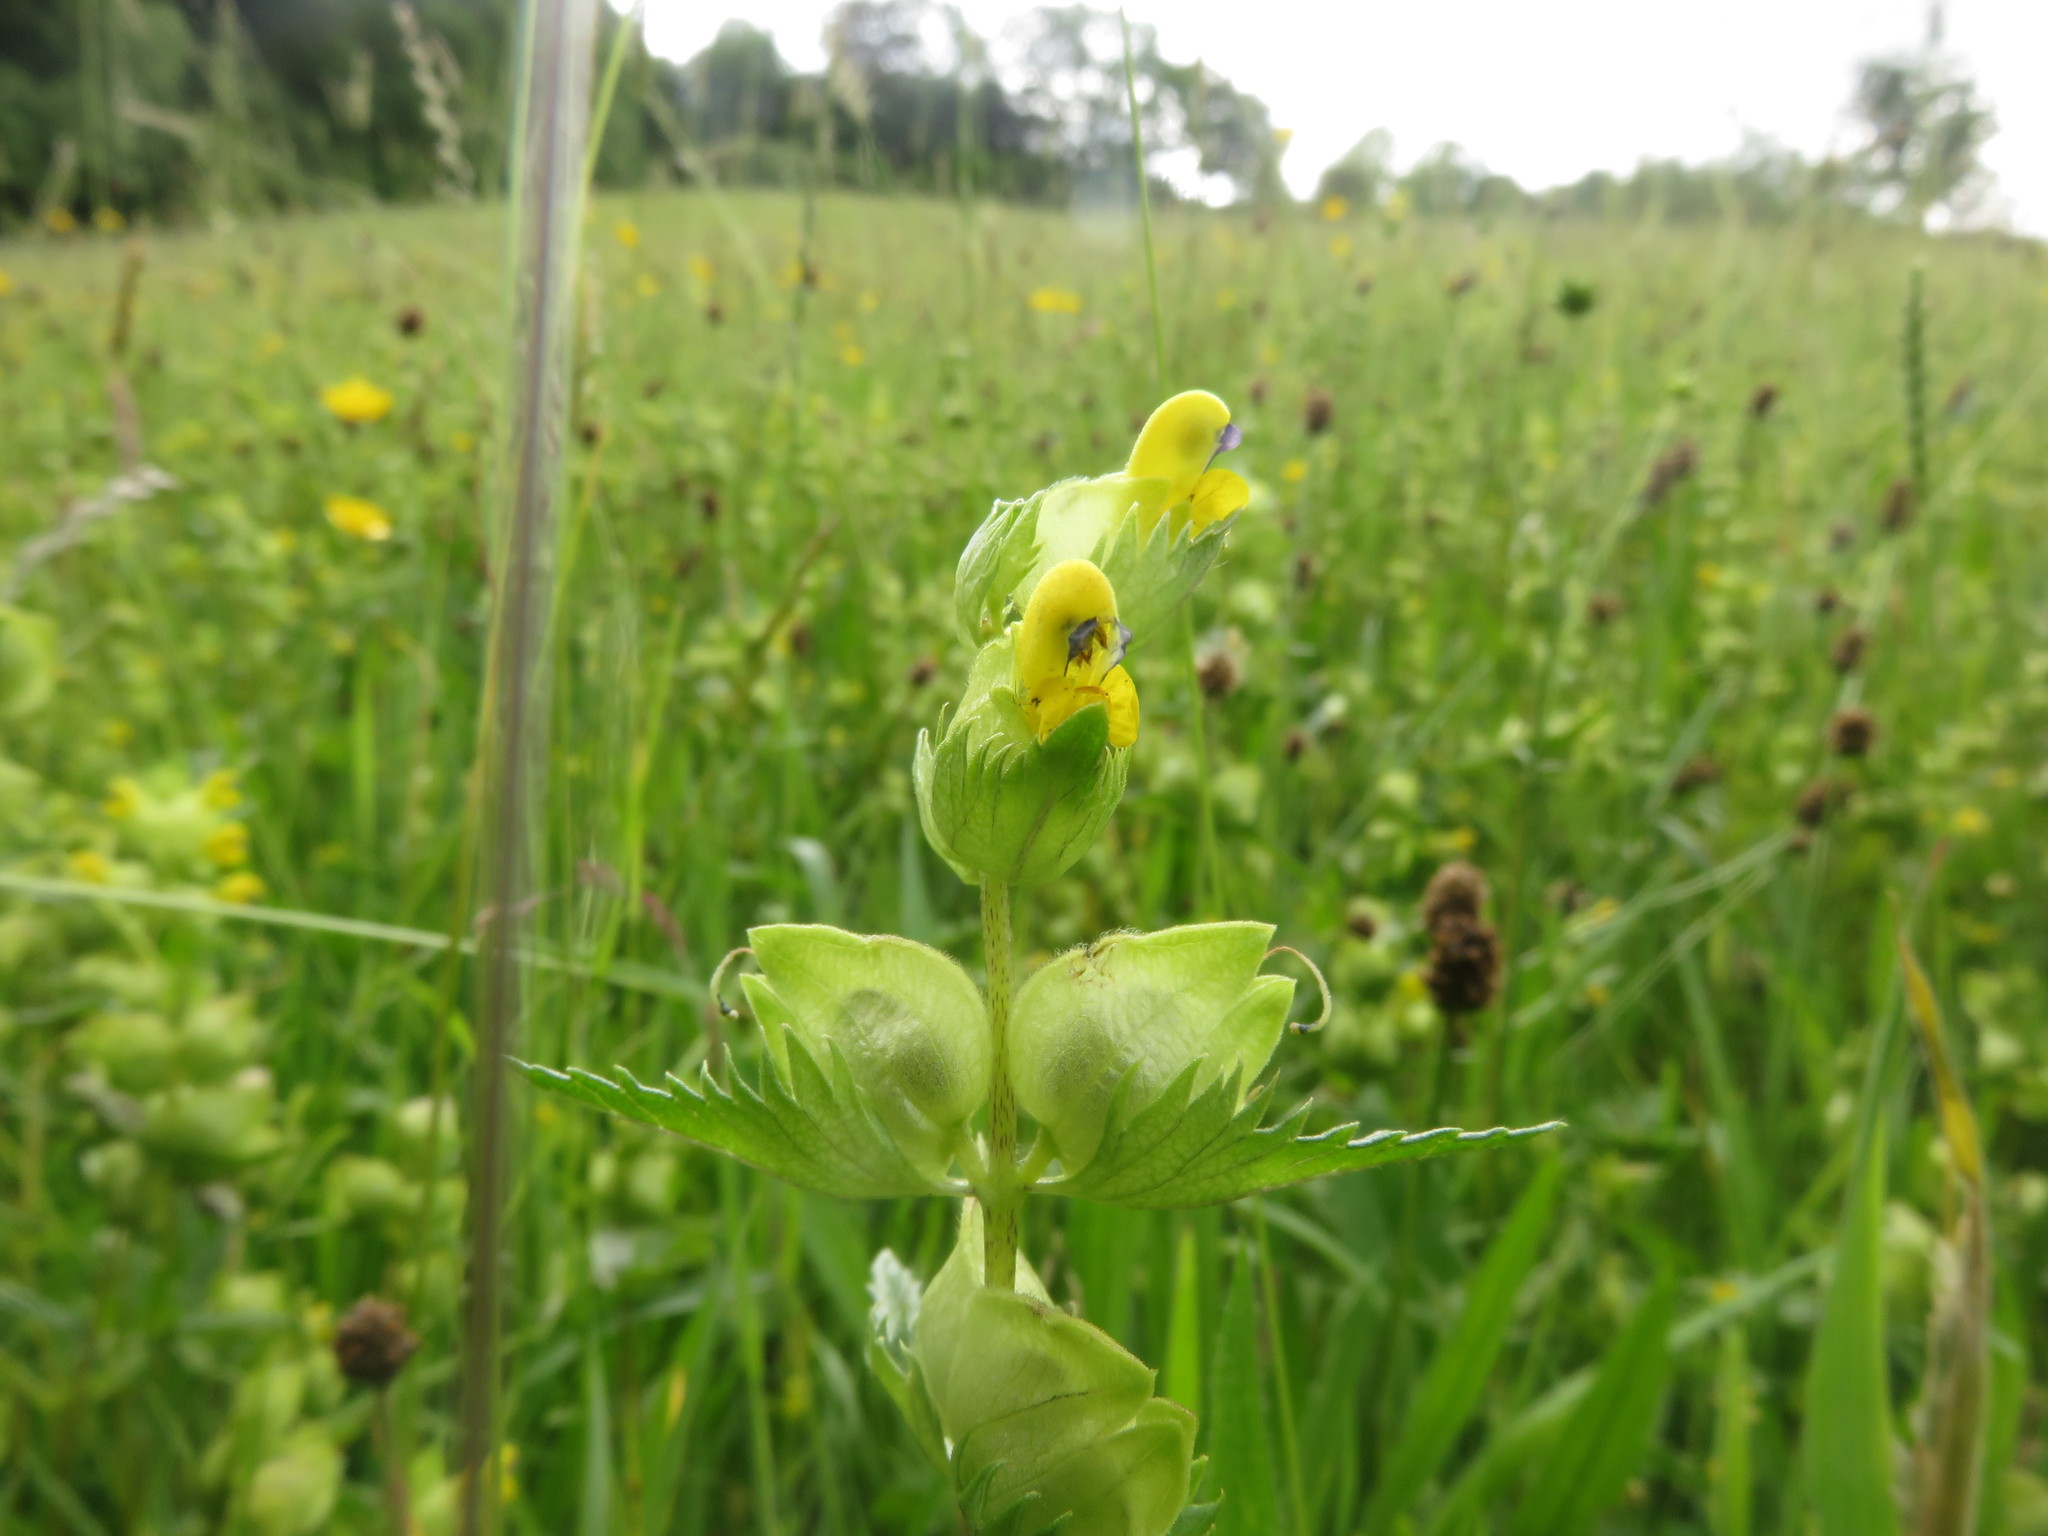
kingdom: Plantae
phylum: Tracheophyta
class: Magnoliopsida
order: Lamiales
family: Orobanchaceae
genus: Rhinanthus
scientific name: Rhinanthus minor
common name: Yellow-rattle
